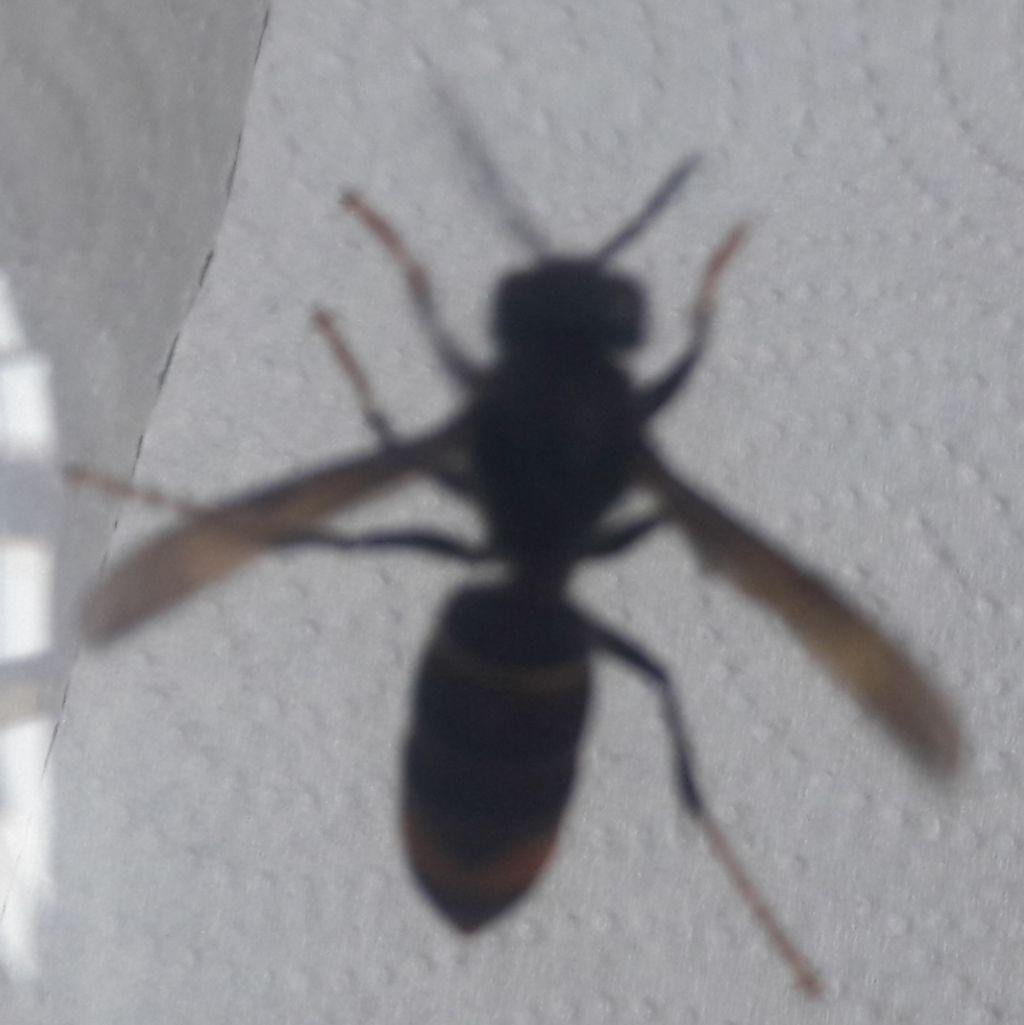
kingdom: Animalia
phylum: Arthropoda
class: Insecta
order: Hymenoptera
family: Vespidae
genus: Vespa
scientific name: Vespa velutina
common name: Asian hornet
